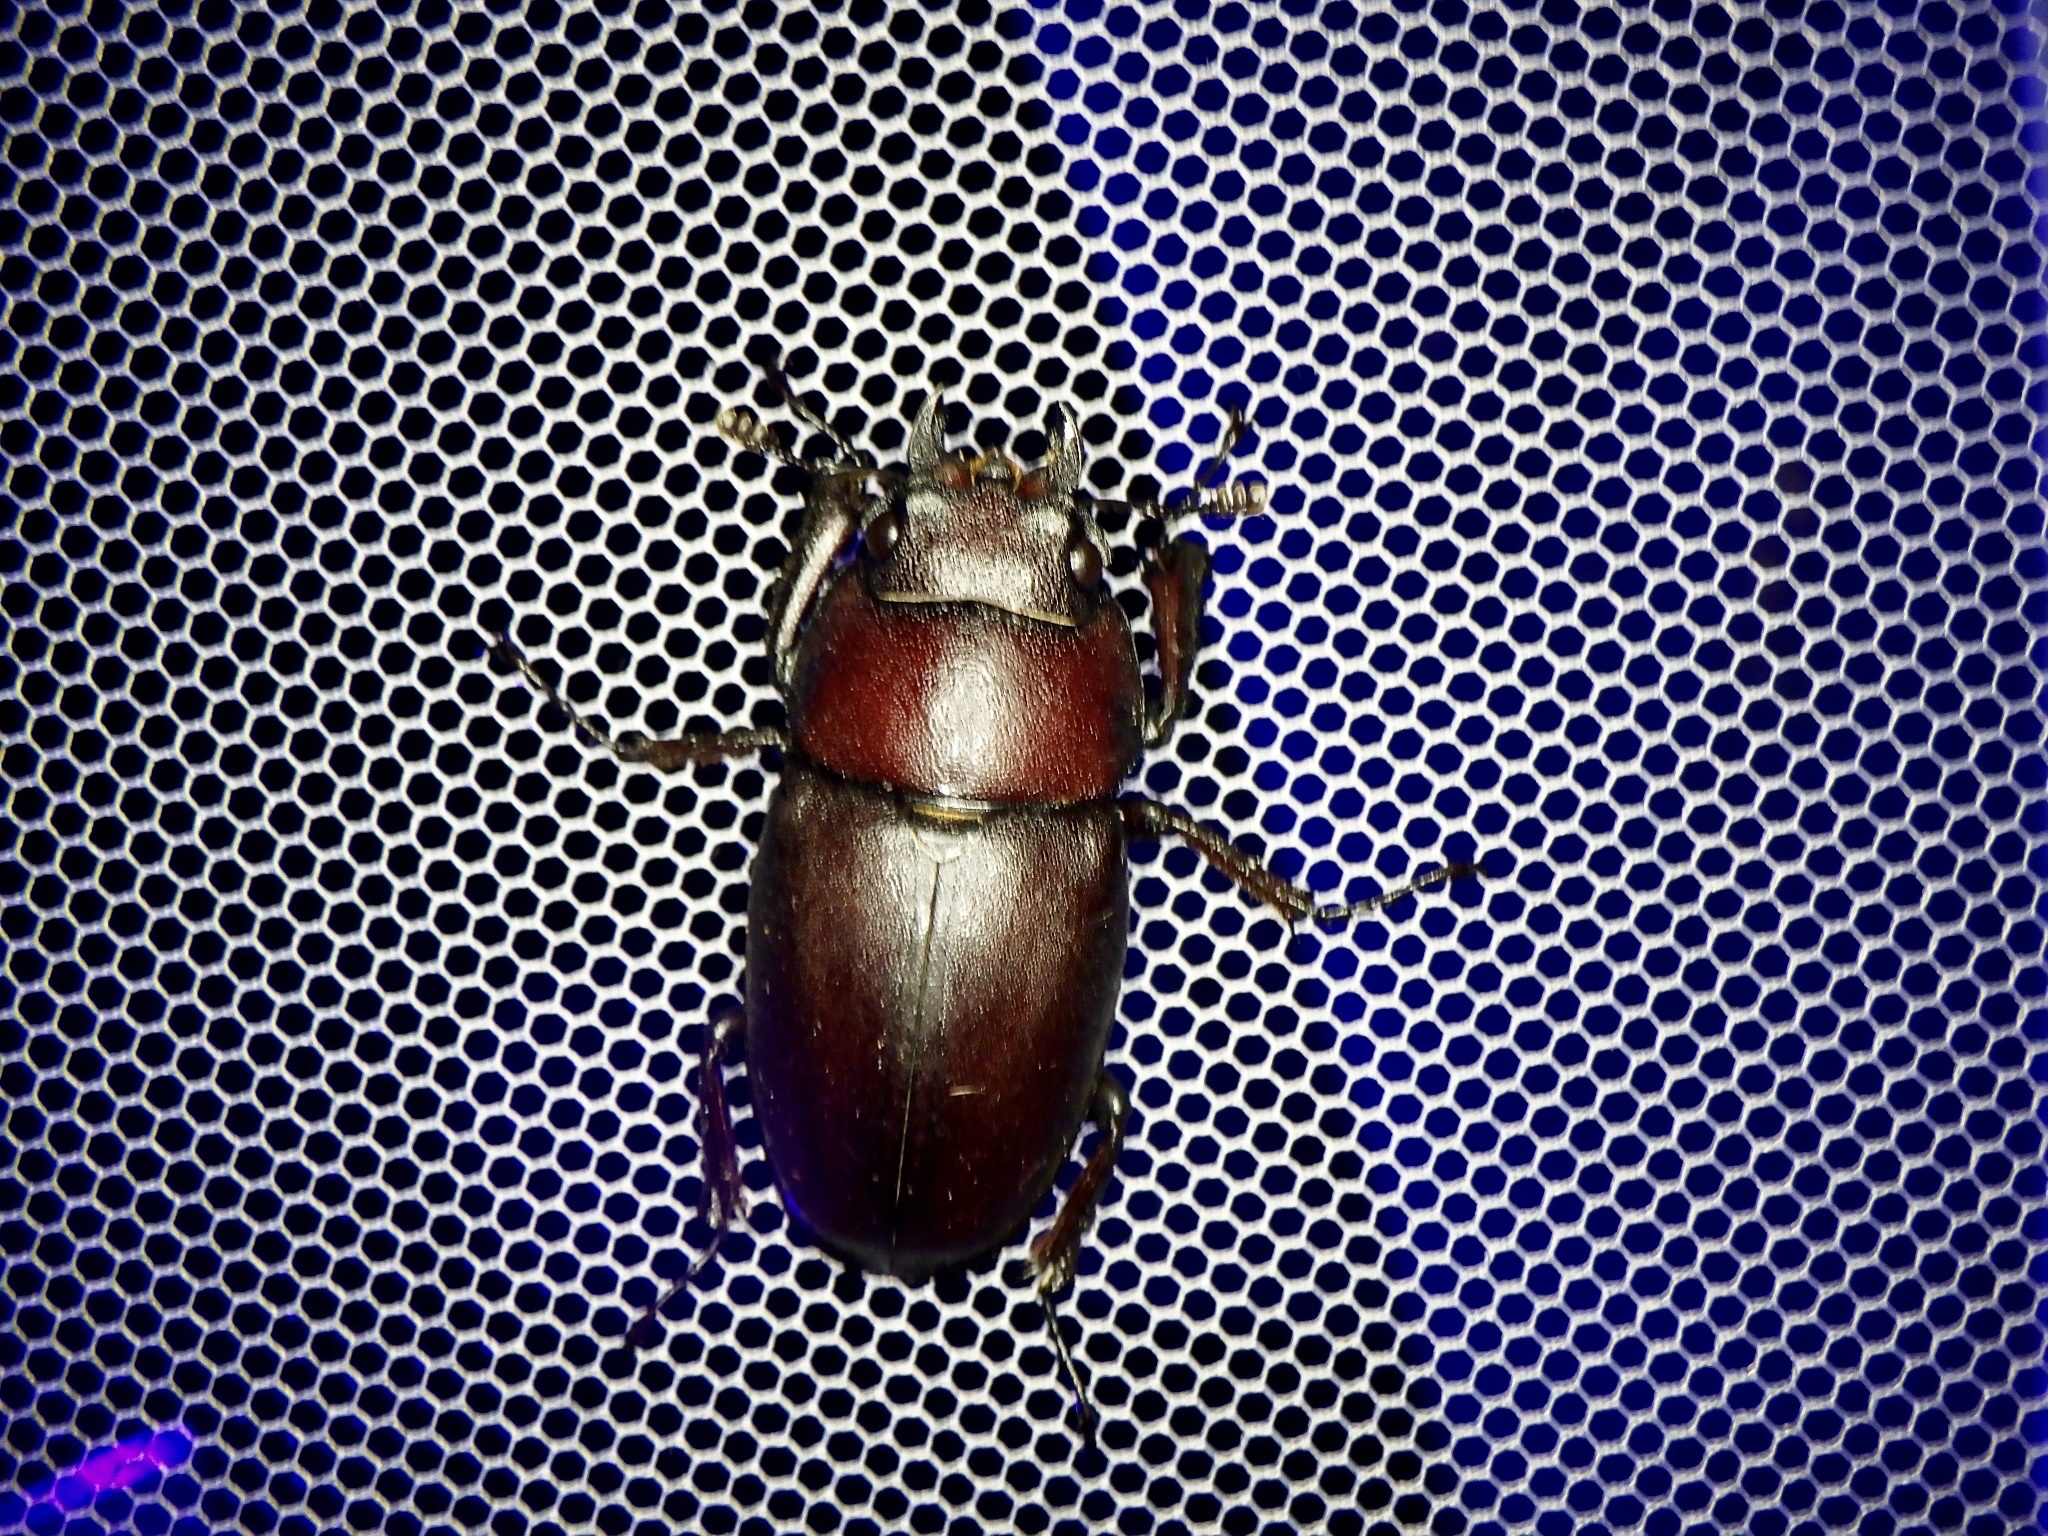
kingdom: Animalia
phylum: Arthropoda
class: Insecta
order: Coleoptera
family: Lucanidae
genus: Prosopocoilus
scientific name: Prosopocoilus inclinatus
